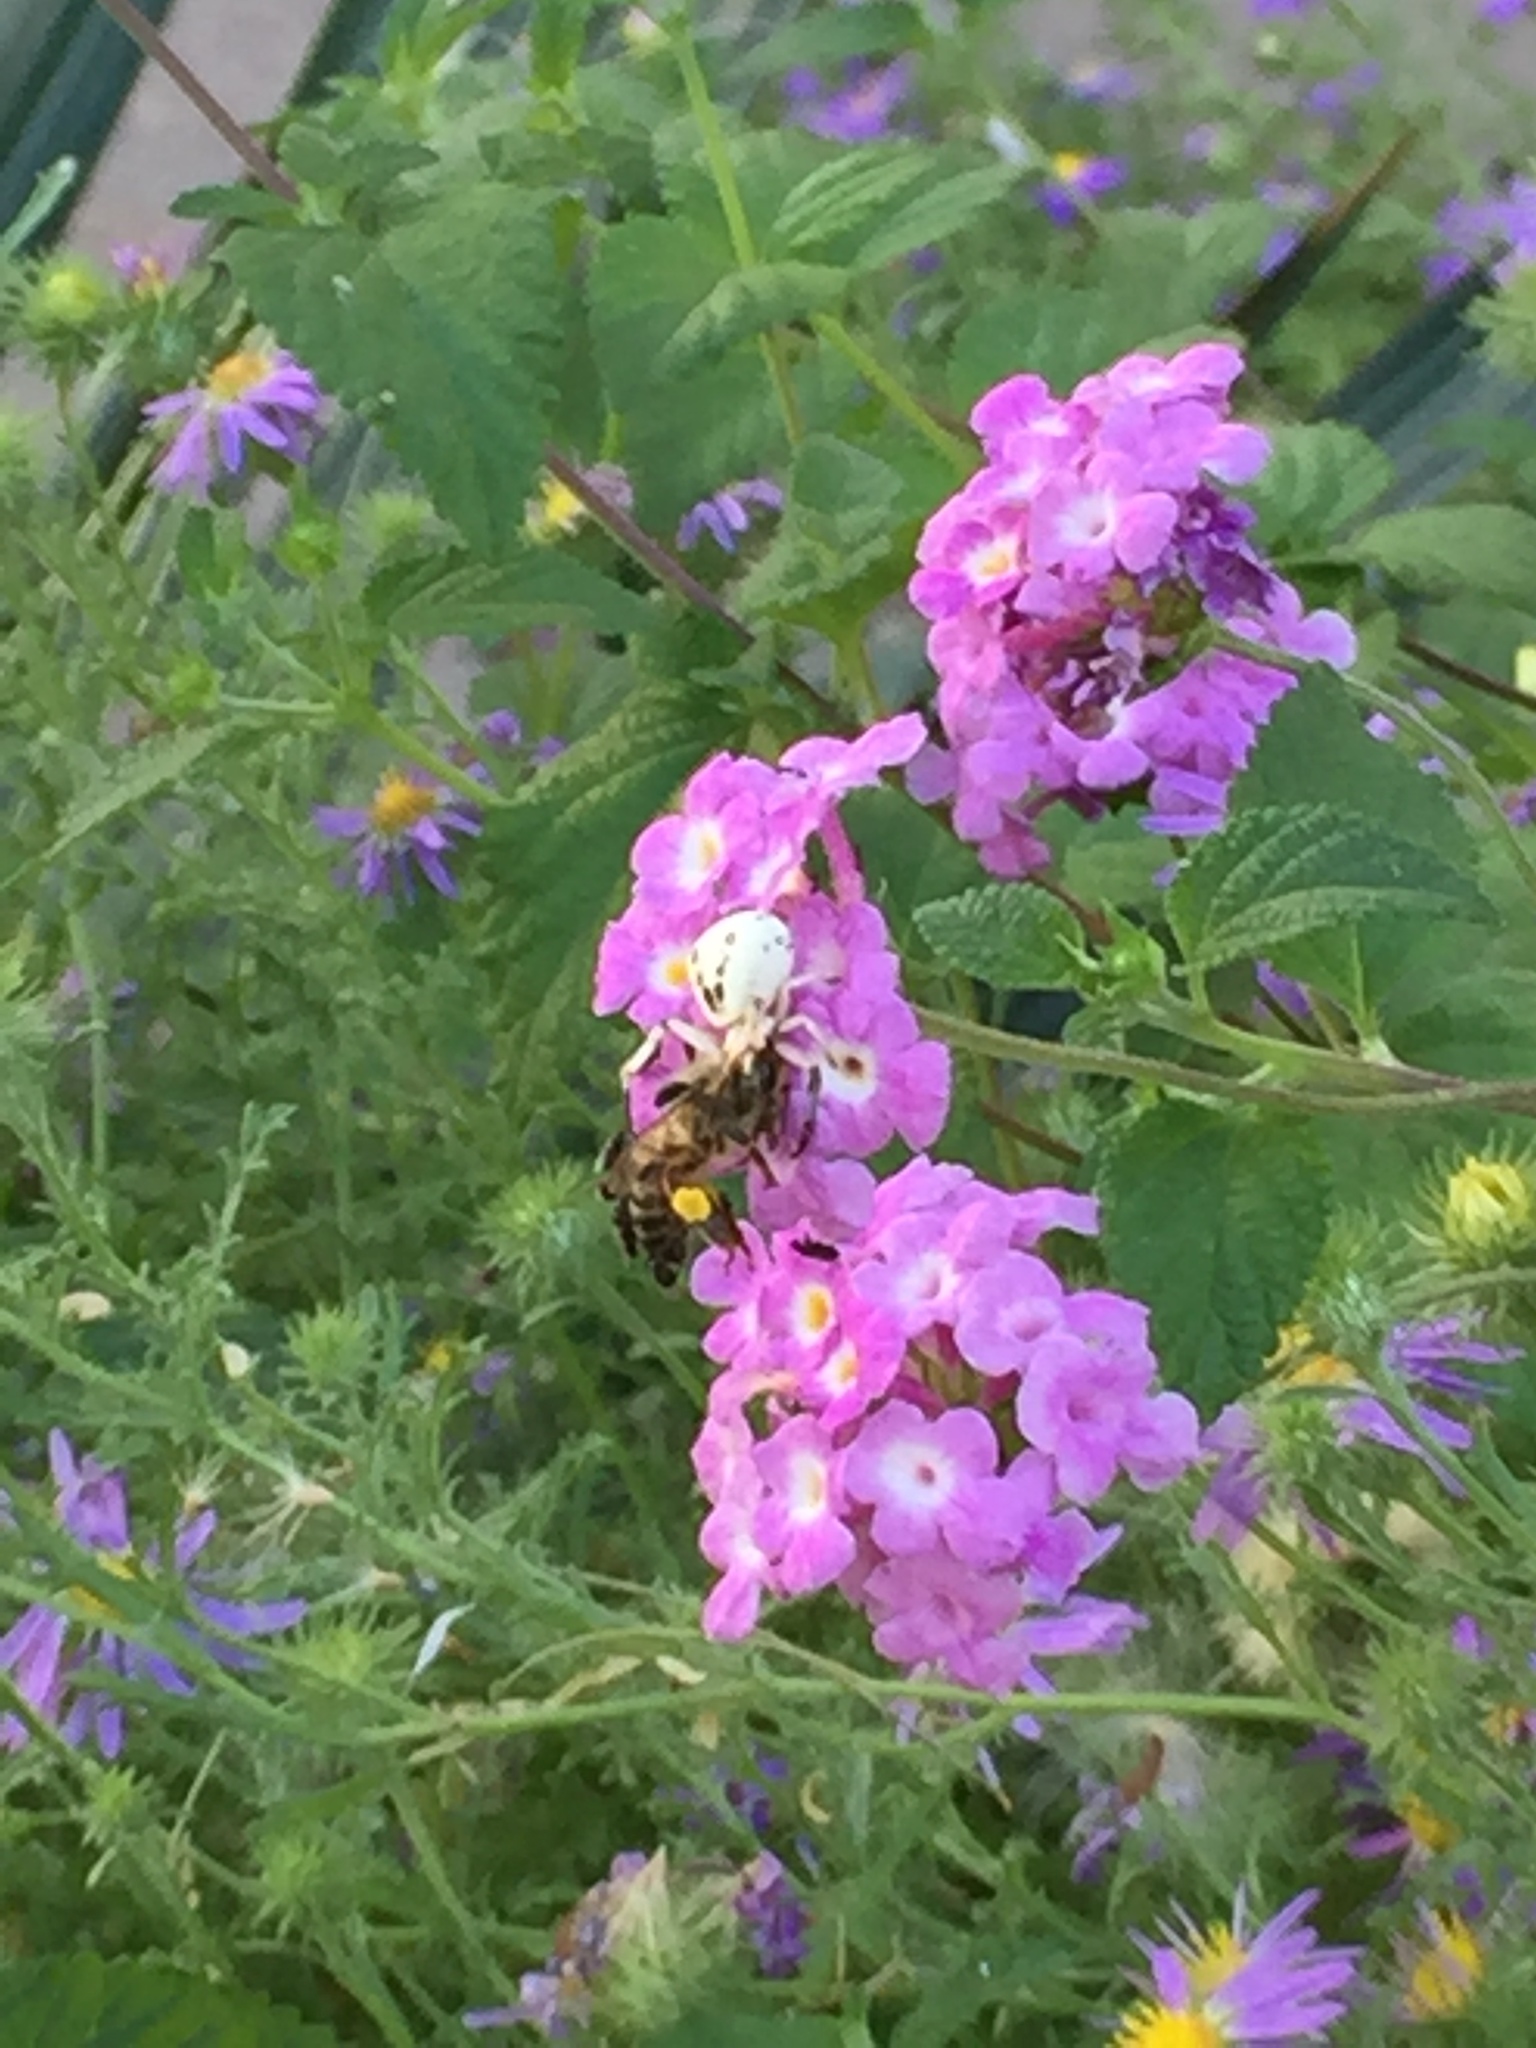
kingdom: Animalia
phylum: Arthropoda
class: Arachnida
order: Araneae
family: Thomisidae
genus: Misumenoides
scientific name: Misumenoides formosipes
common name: White-banded crab spider
